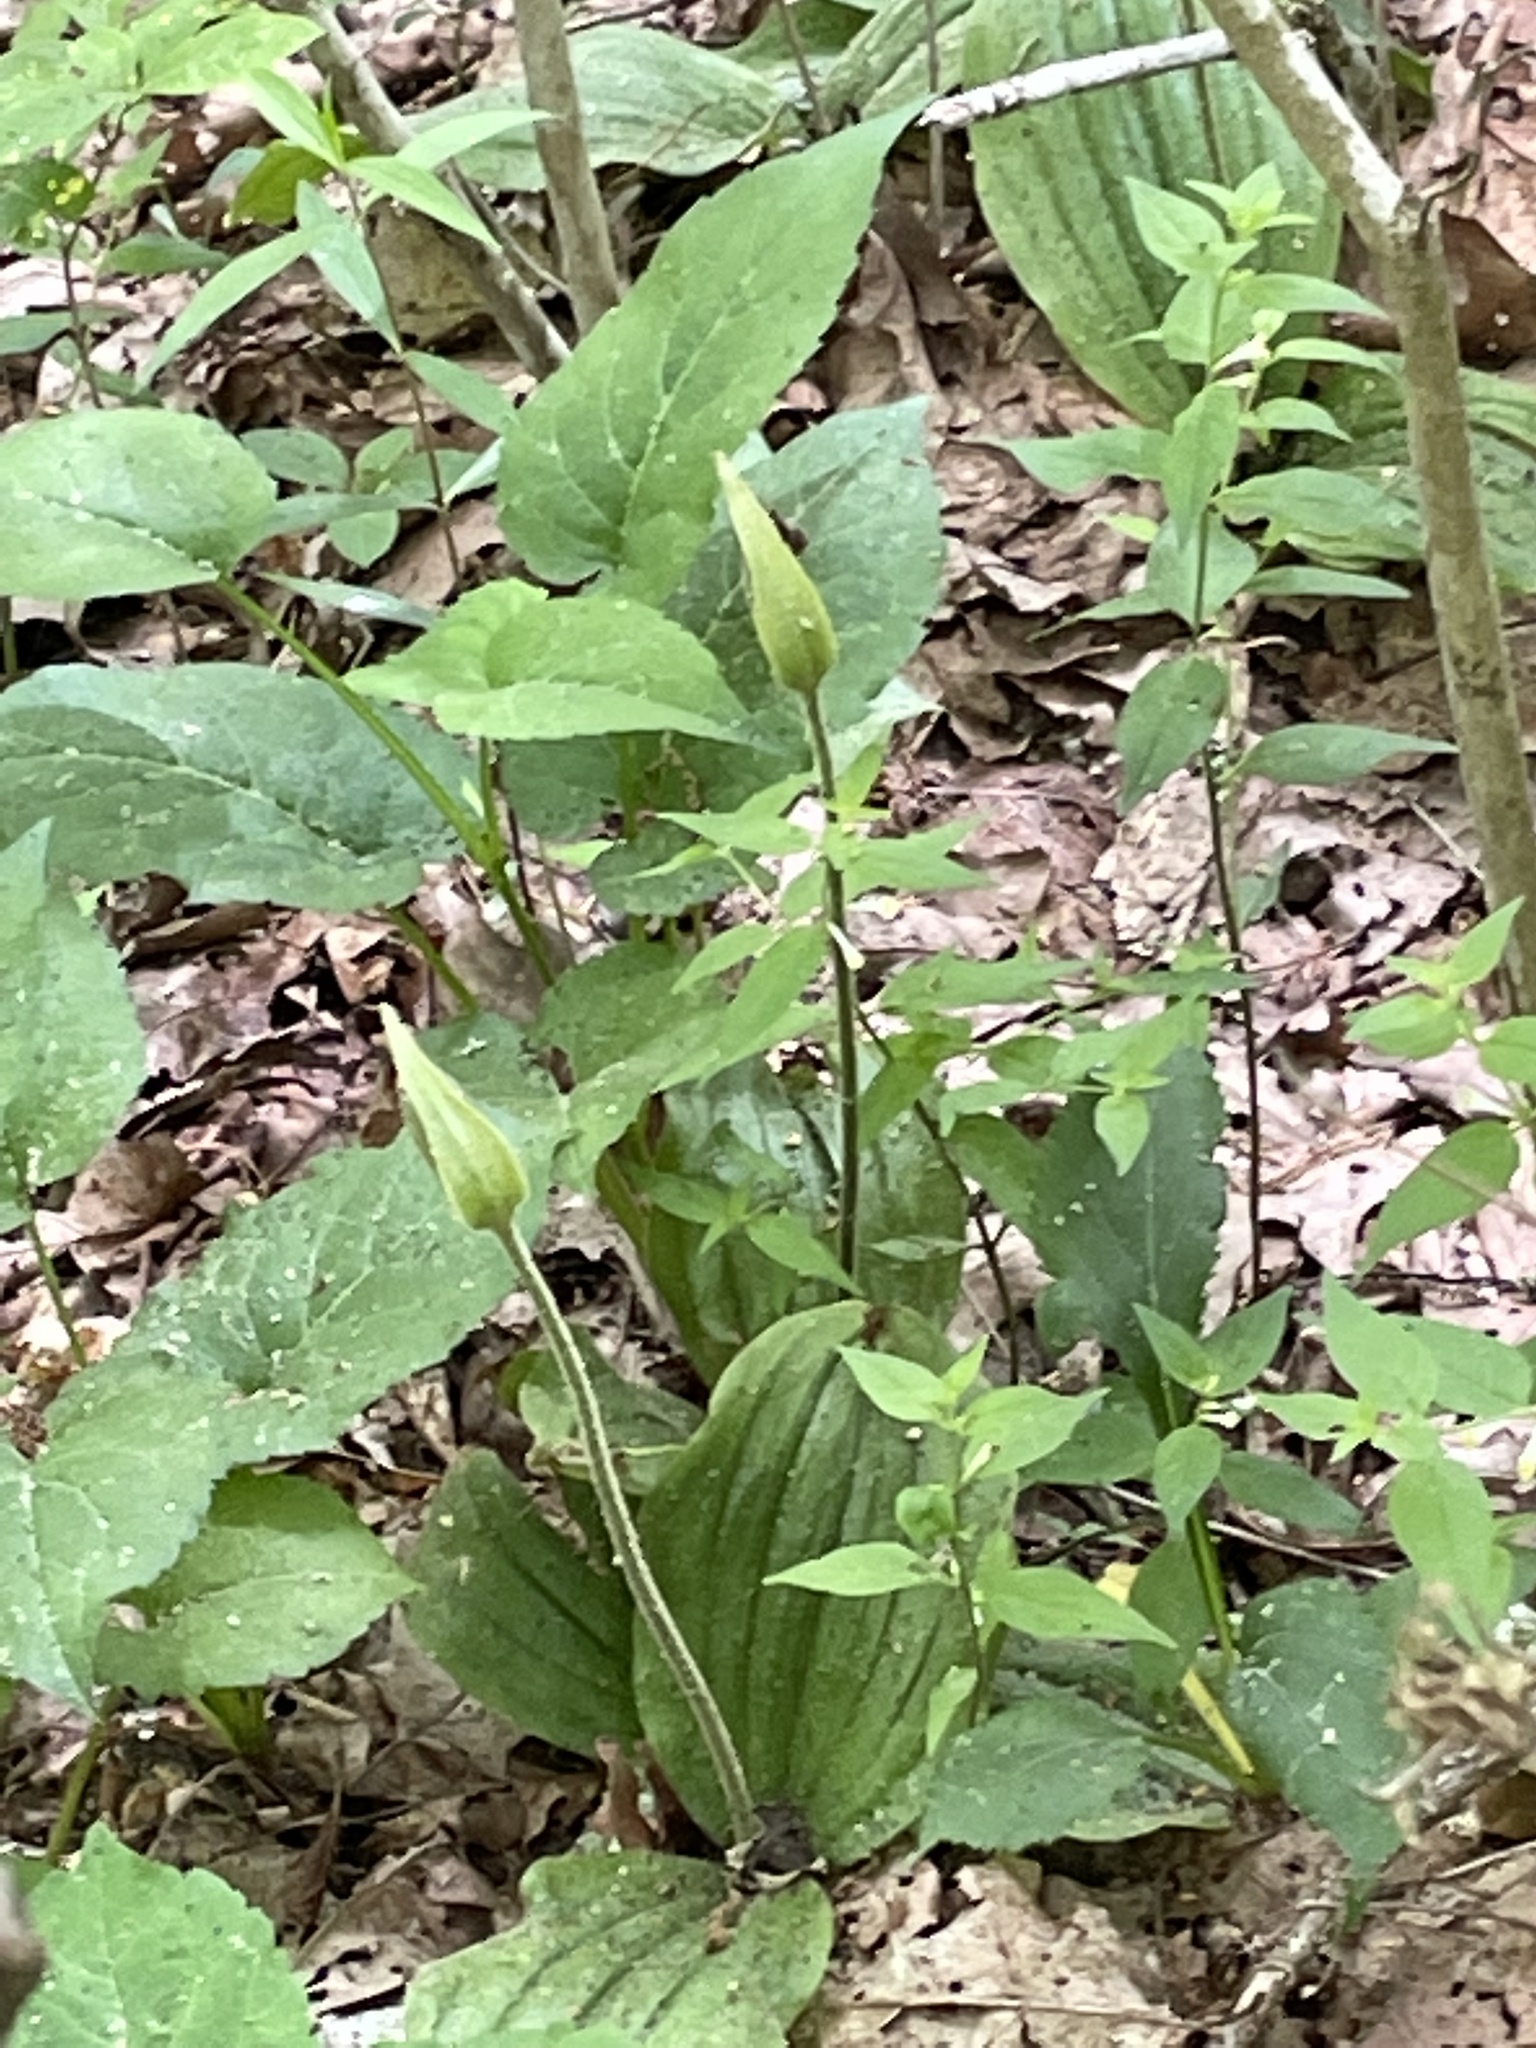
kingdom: Plantae
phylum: Tracheophyta
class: Liliopsida
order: Asparagales
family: Orchidaceae
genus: Cypripedium
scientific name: Cypripedium acaule
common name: Pink lady's-slipper
